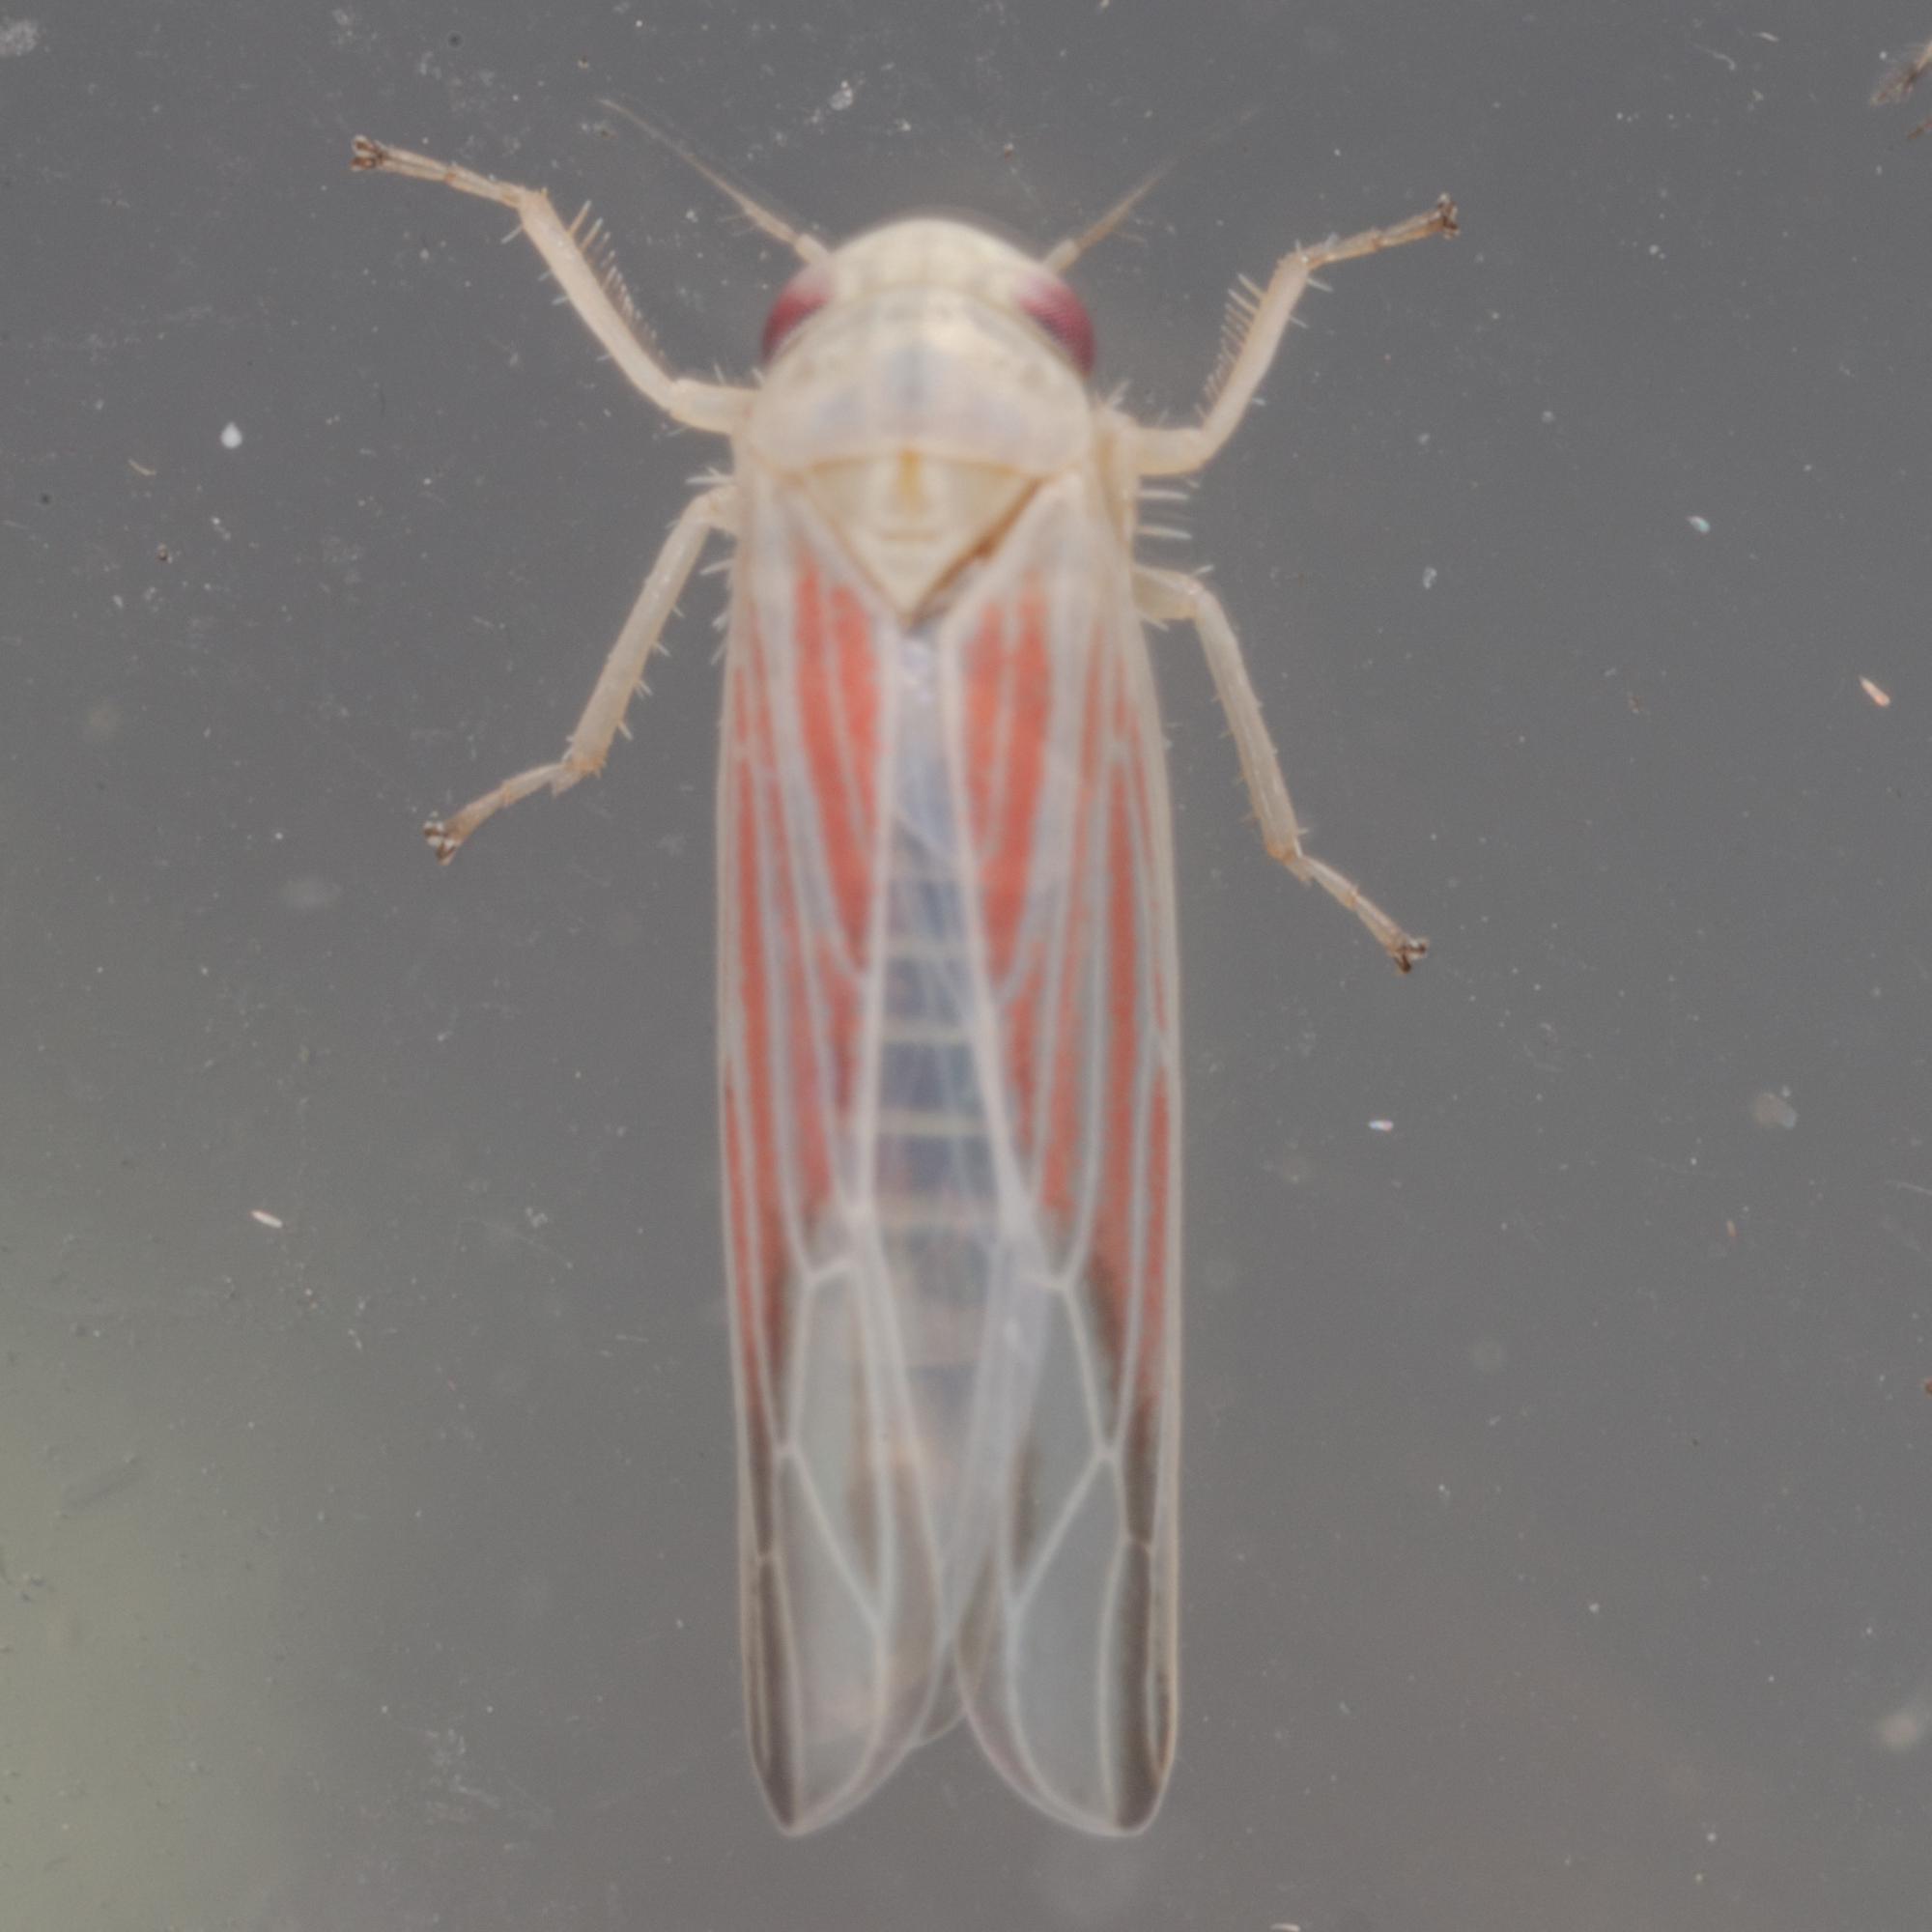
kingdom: Animalia
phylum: Arthropoda
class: Insecta
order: Hemiptera
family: Cicadellidae
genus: Balclutha
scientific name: Balclutha rubrostriata
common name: Red-streaked leafhopper
